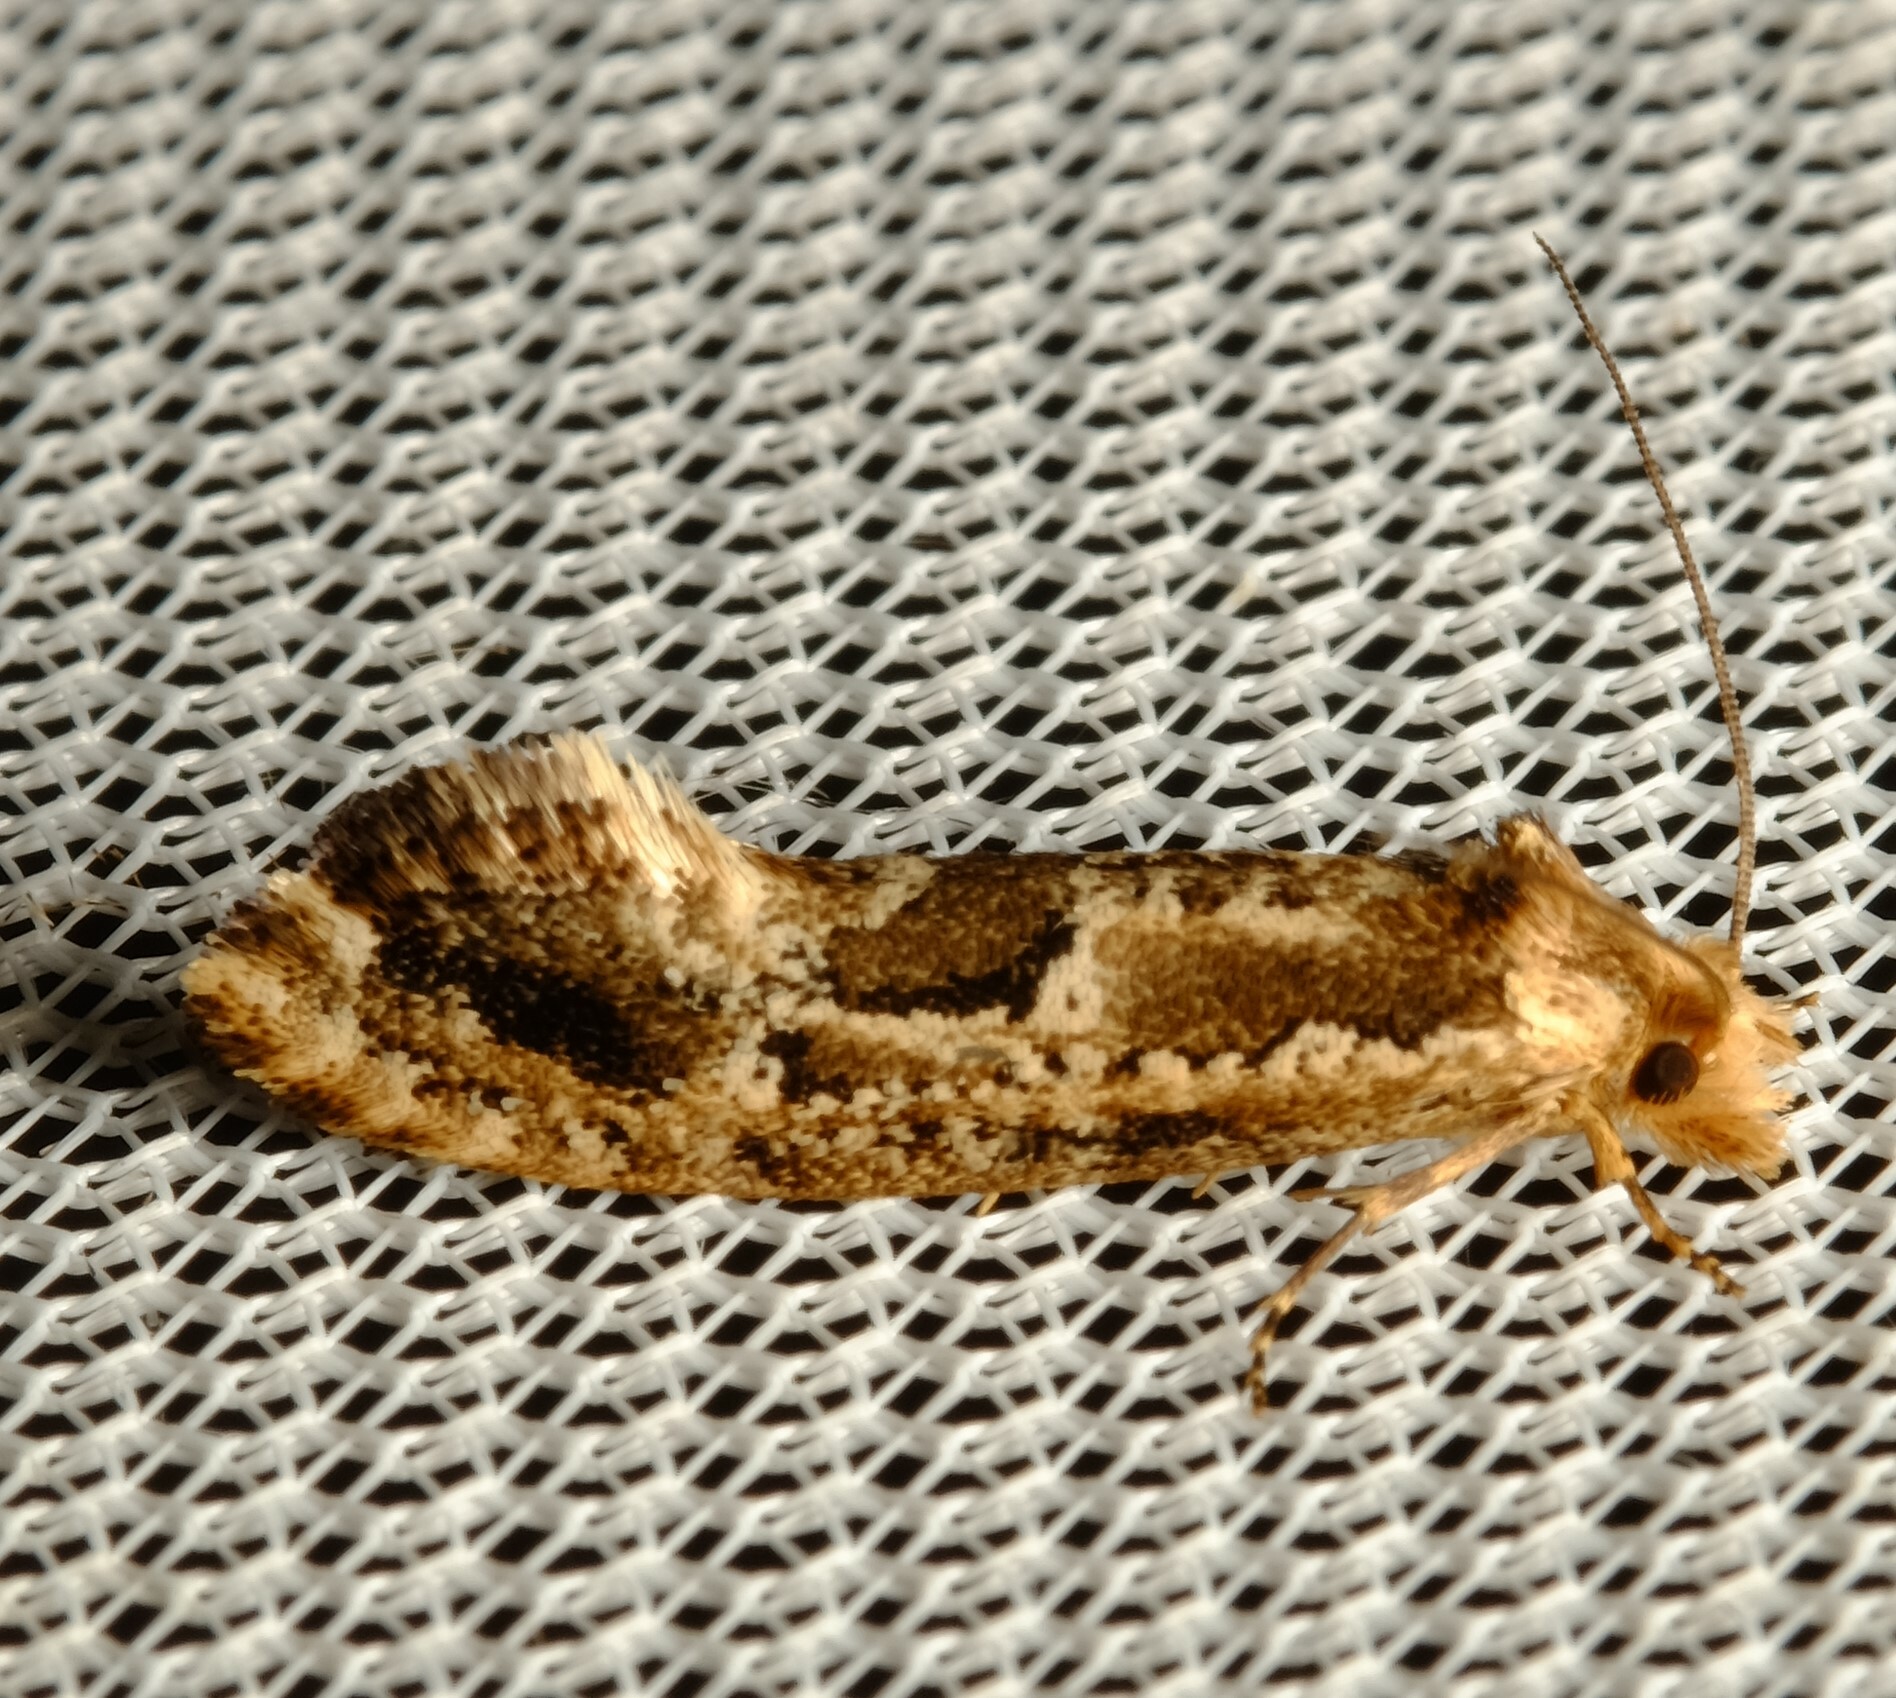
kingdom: Animalia
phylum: Arthropoda
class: Insecta
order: Lepidoptera
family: Tineidae
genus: Moerarchis
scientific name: Moerarchis inconcisella
